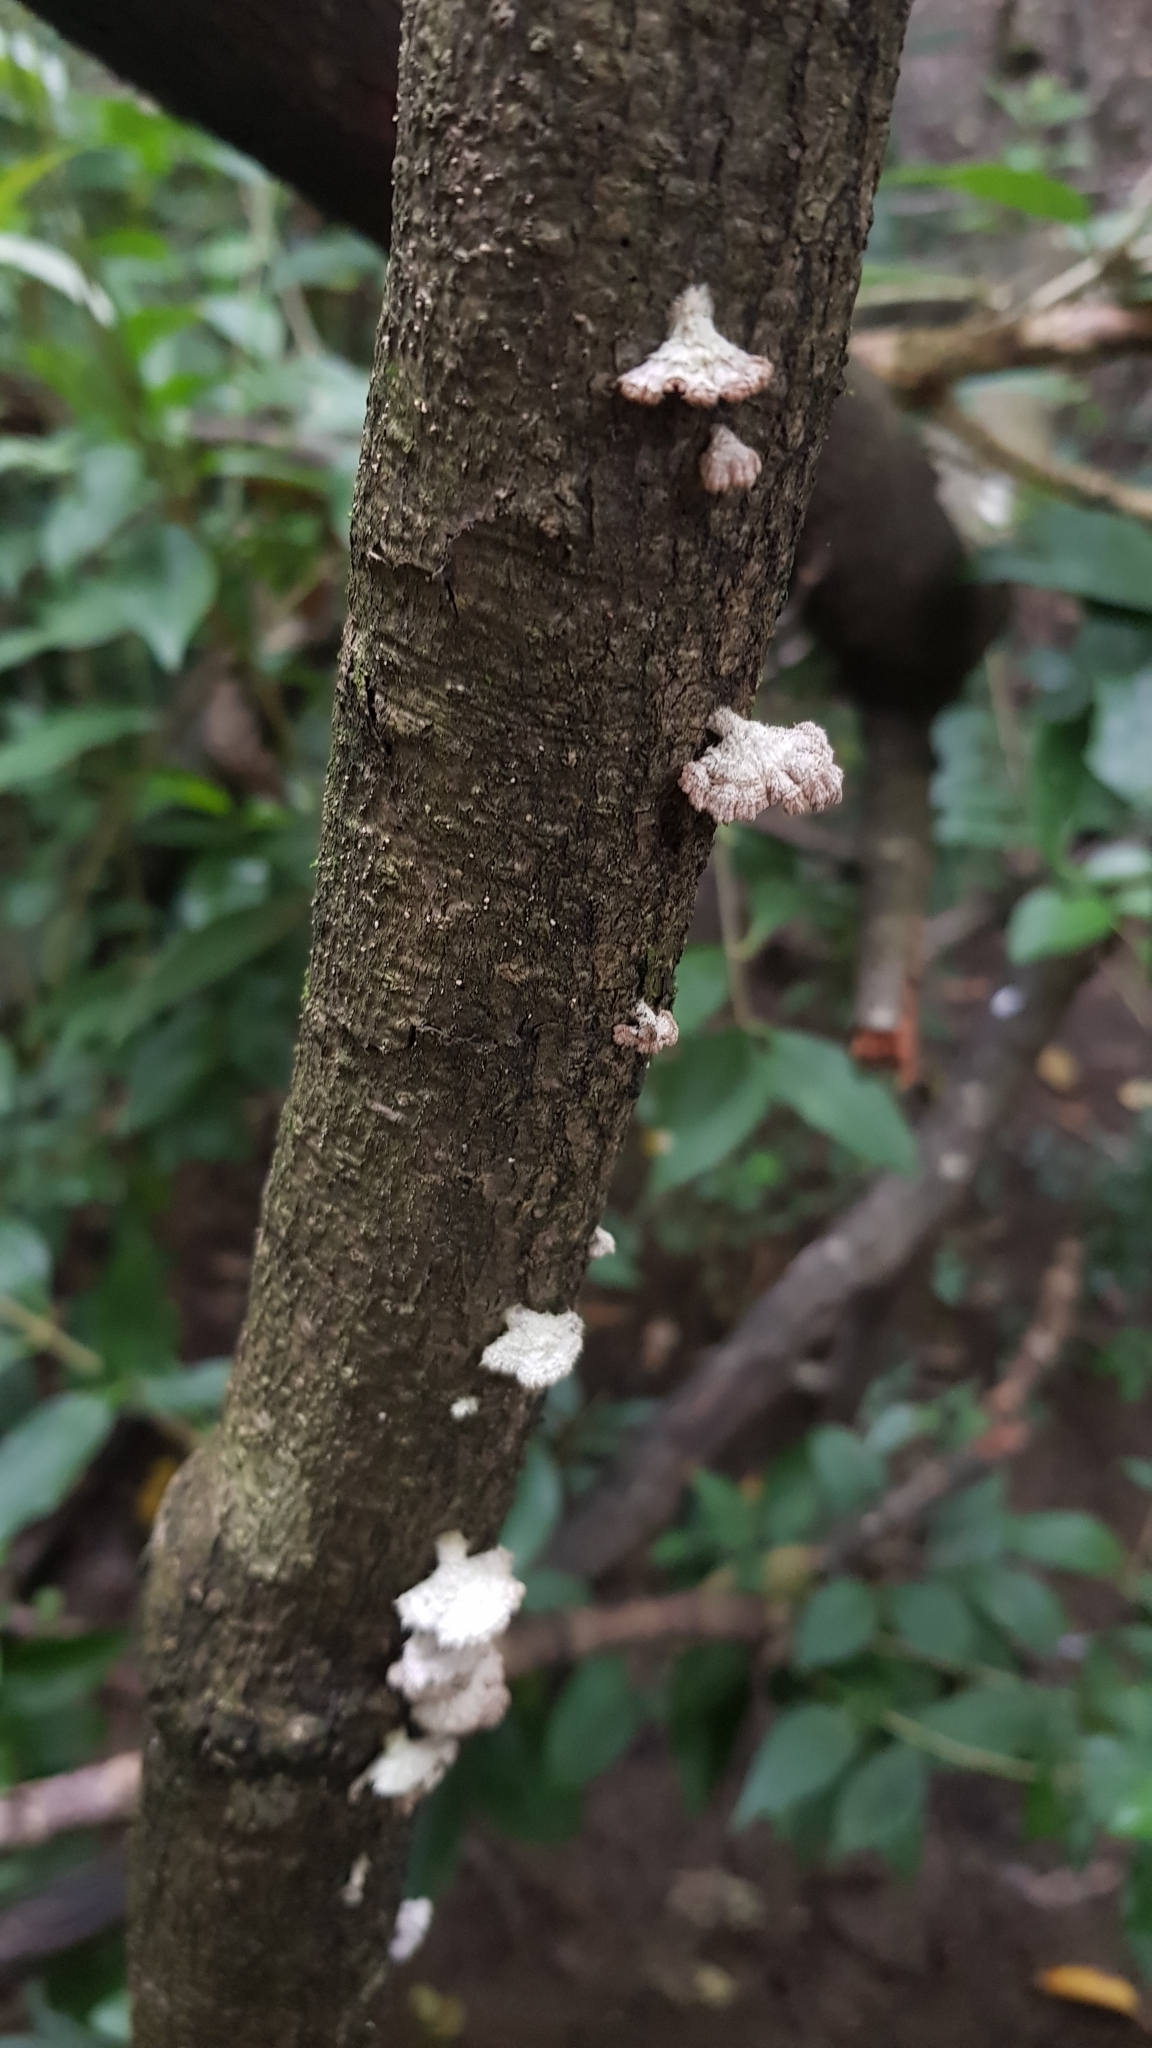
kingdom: Fungi
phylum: Basidiomycota
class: Agaricomycetes
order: Agaricales
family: Schizophyllaceae
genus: Schizophyllum
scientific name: Schizophyllum commune
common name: Common porecrust
